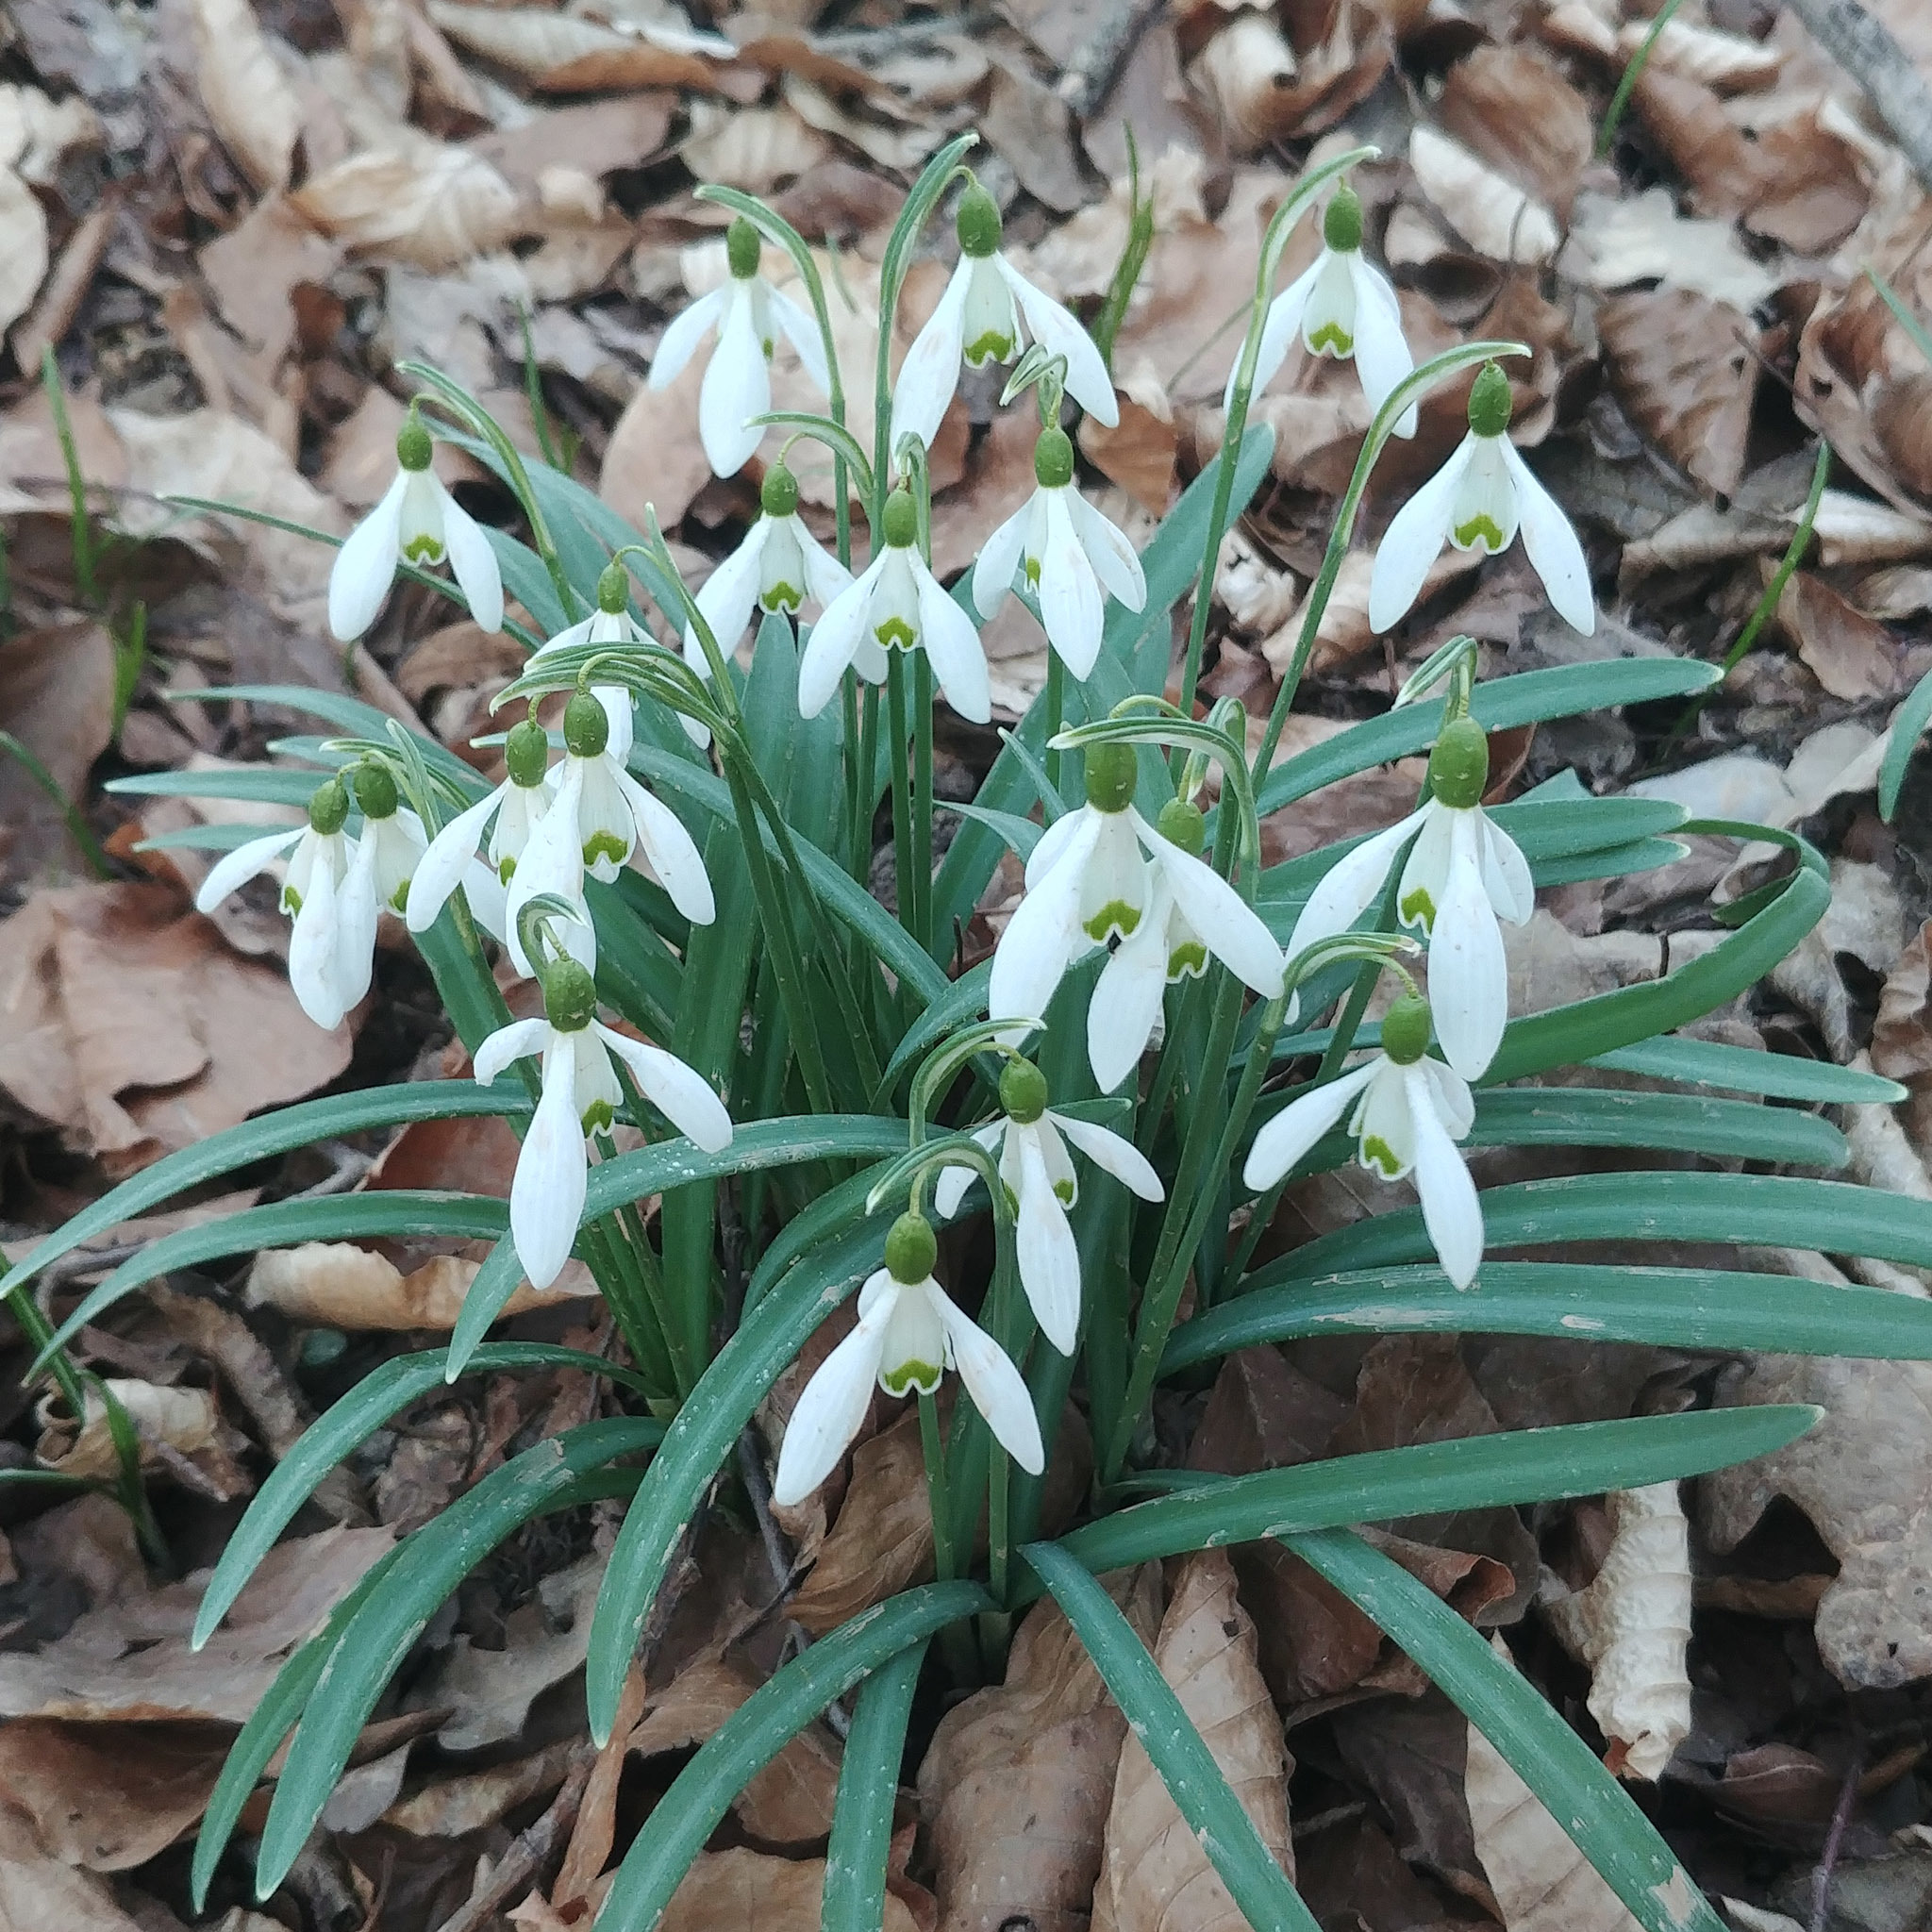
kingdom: Plantae
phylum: Tracheophyta
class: Liliopsida
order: Asparagales
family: Amaryllidaceae
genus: Galanthus
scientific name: Galanthus nivalis
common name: Snowdrop
